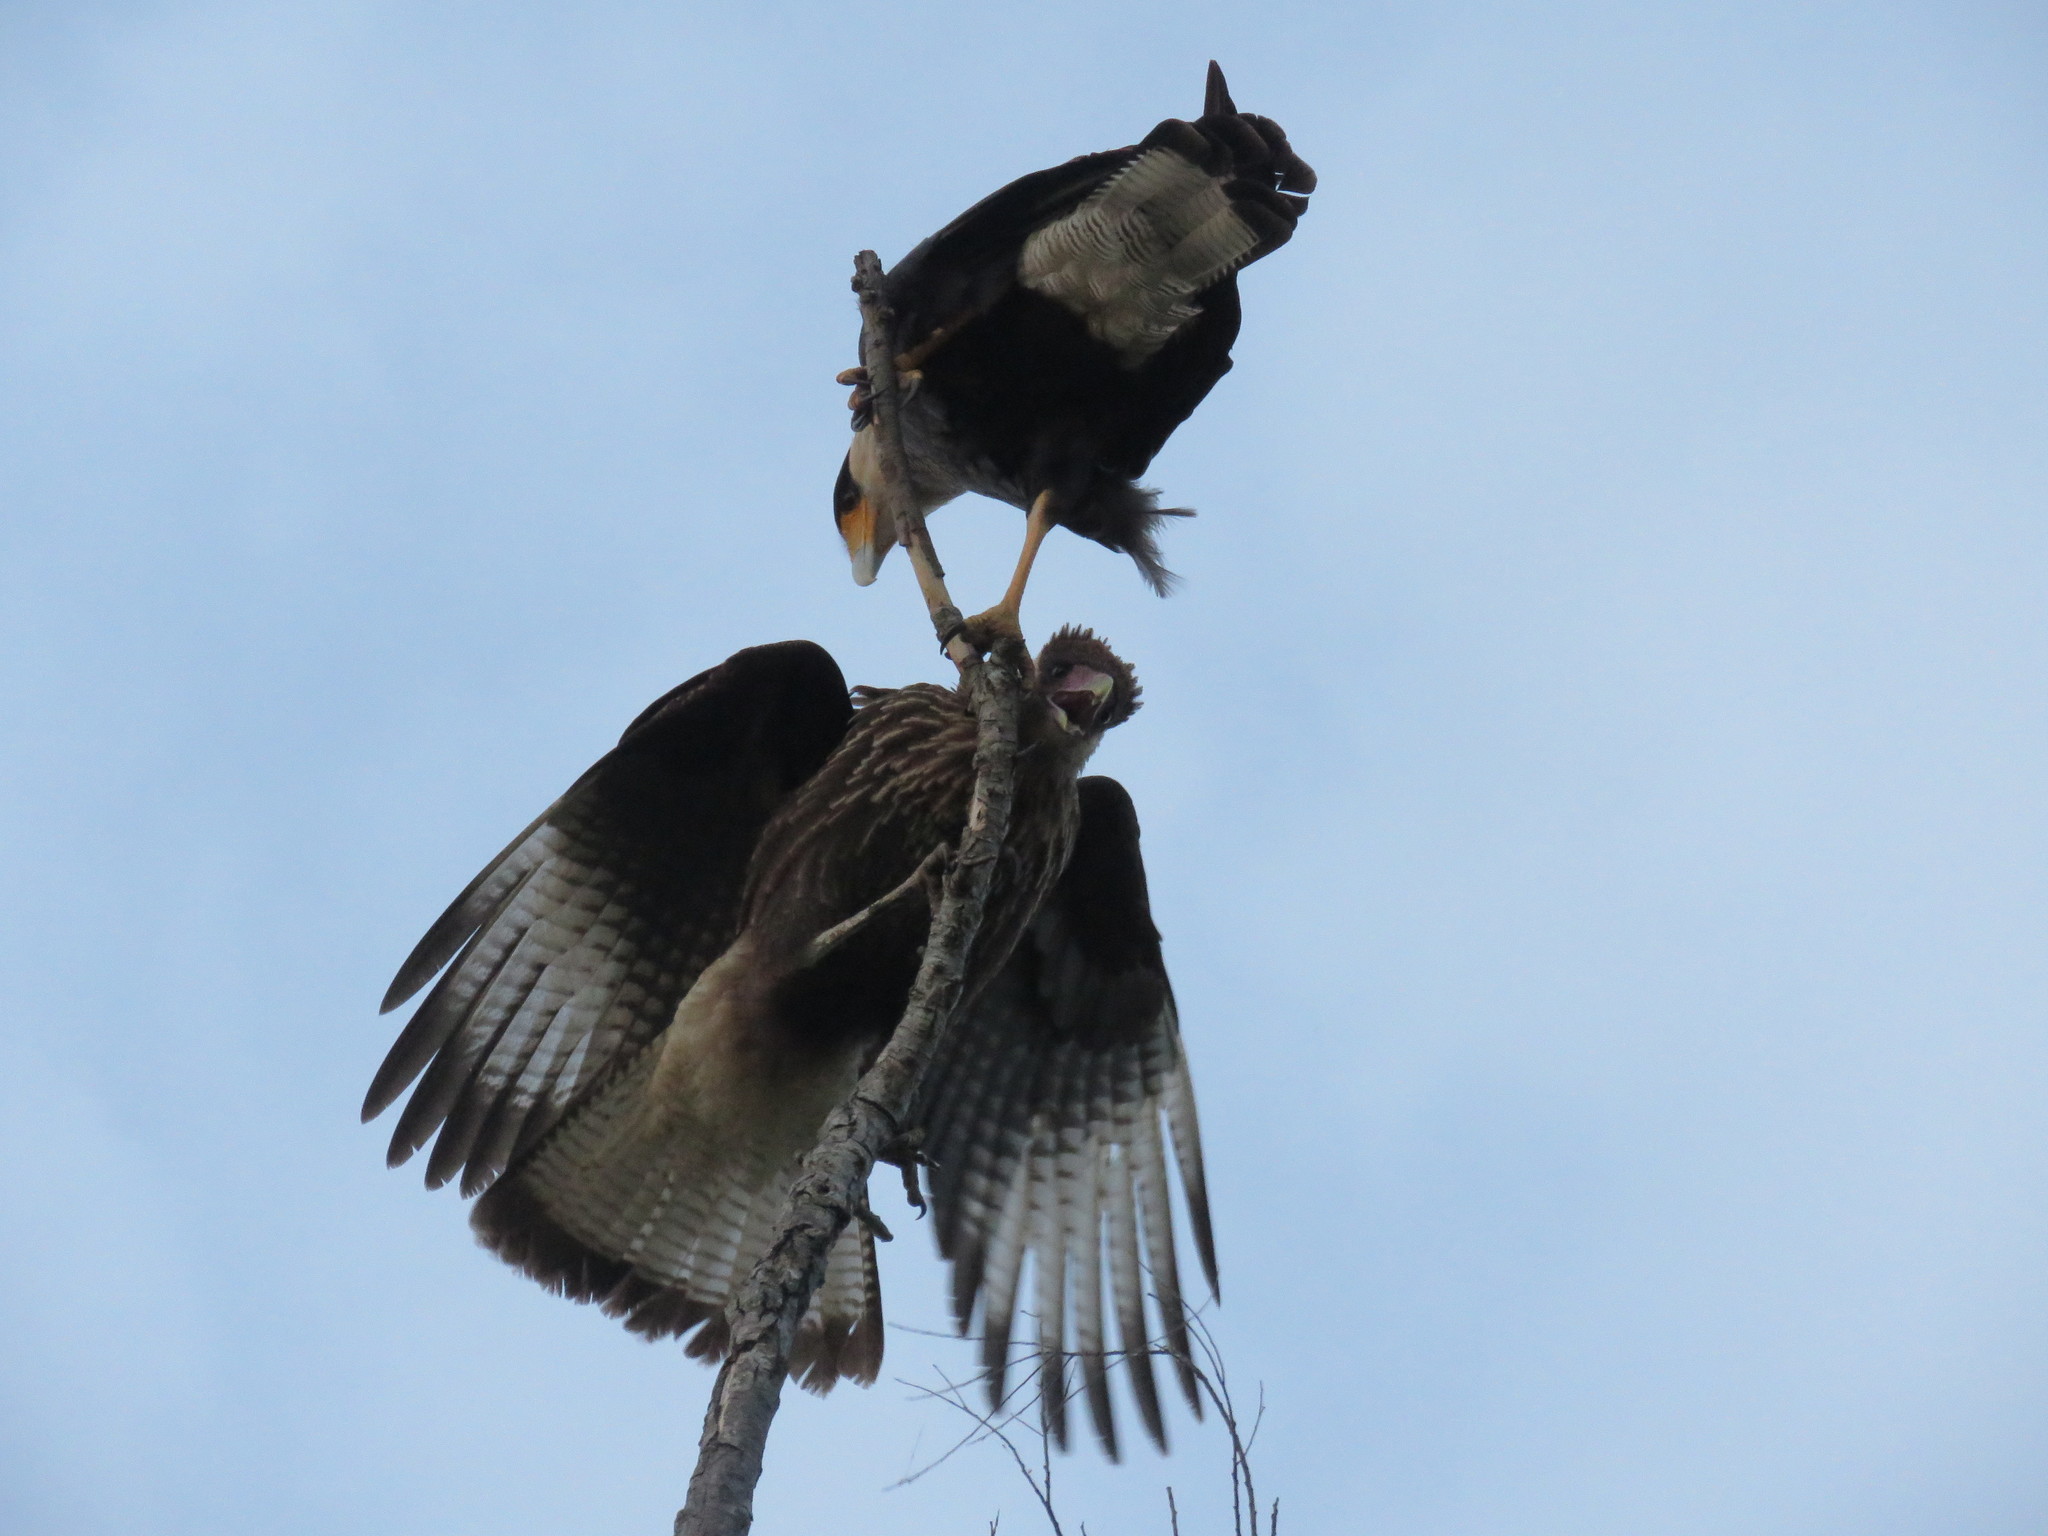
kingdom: Animalia
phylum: Chordata
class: Aves
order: Falconiformes
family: Falconidae
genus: Caracara
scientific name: Caracara plancus
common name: Southern caracara
